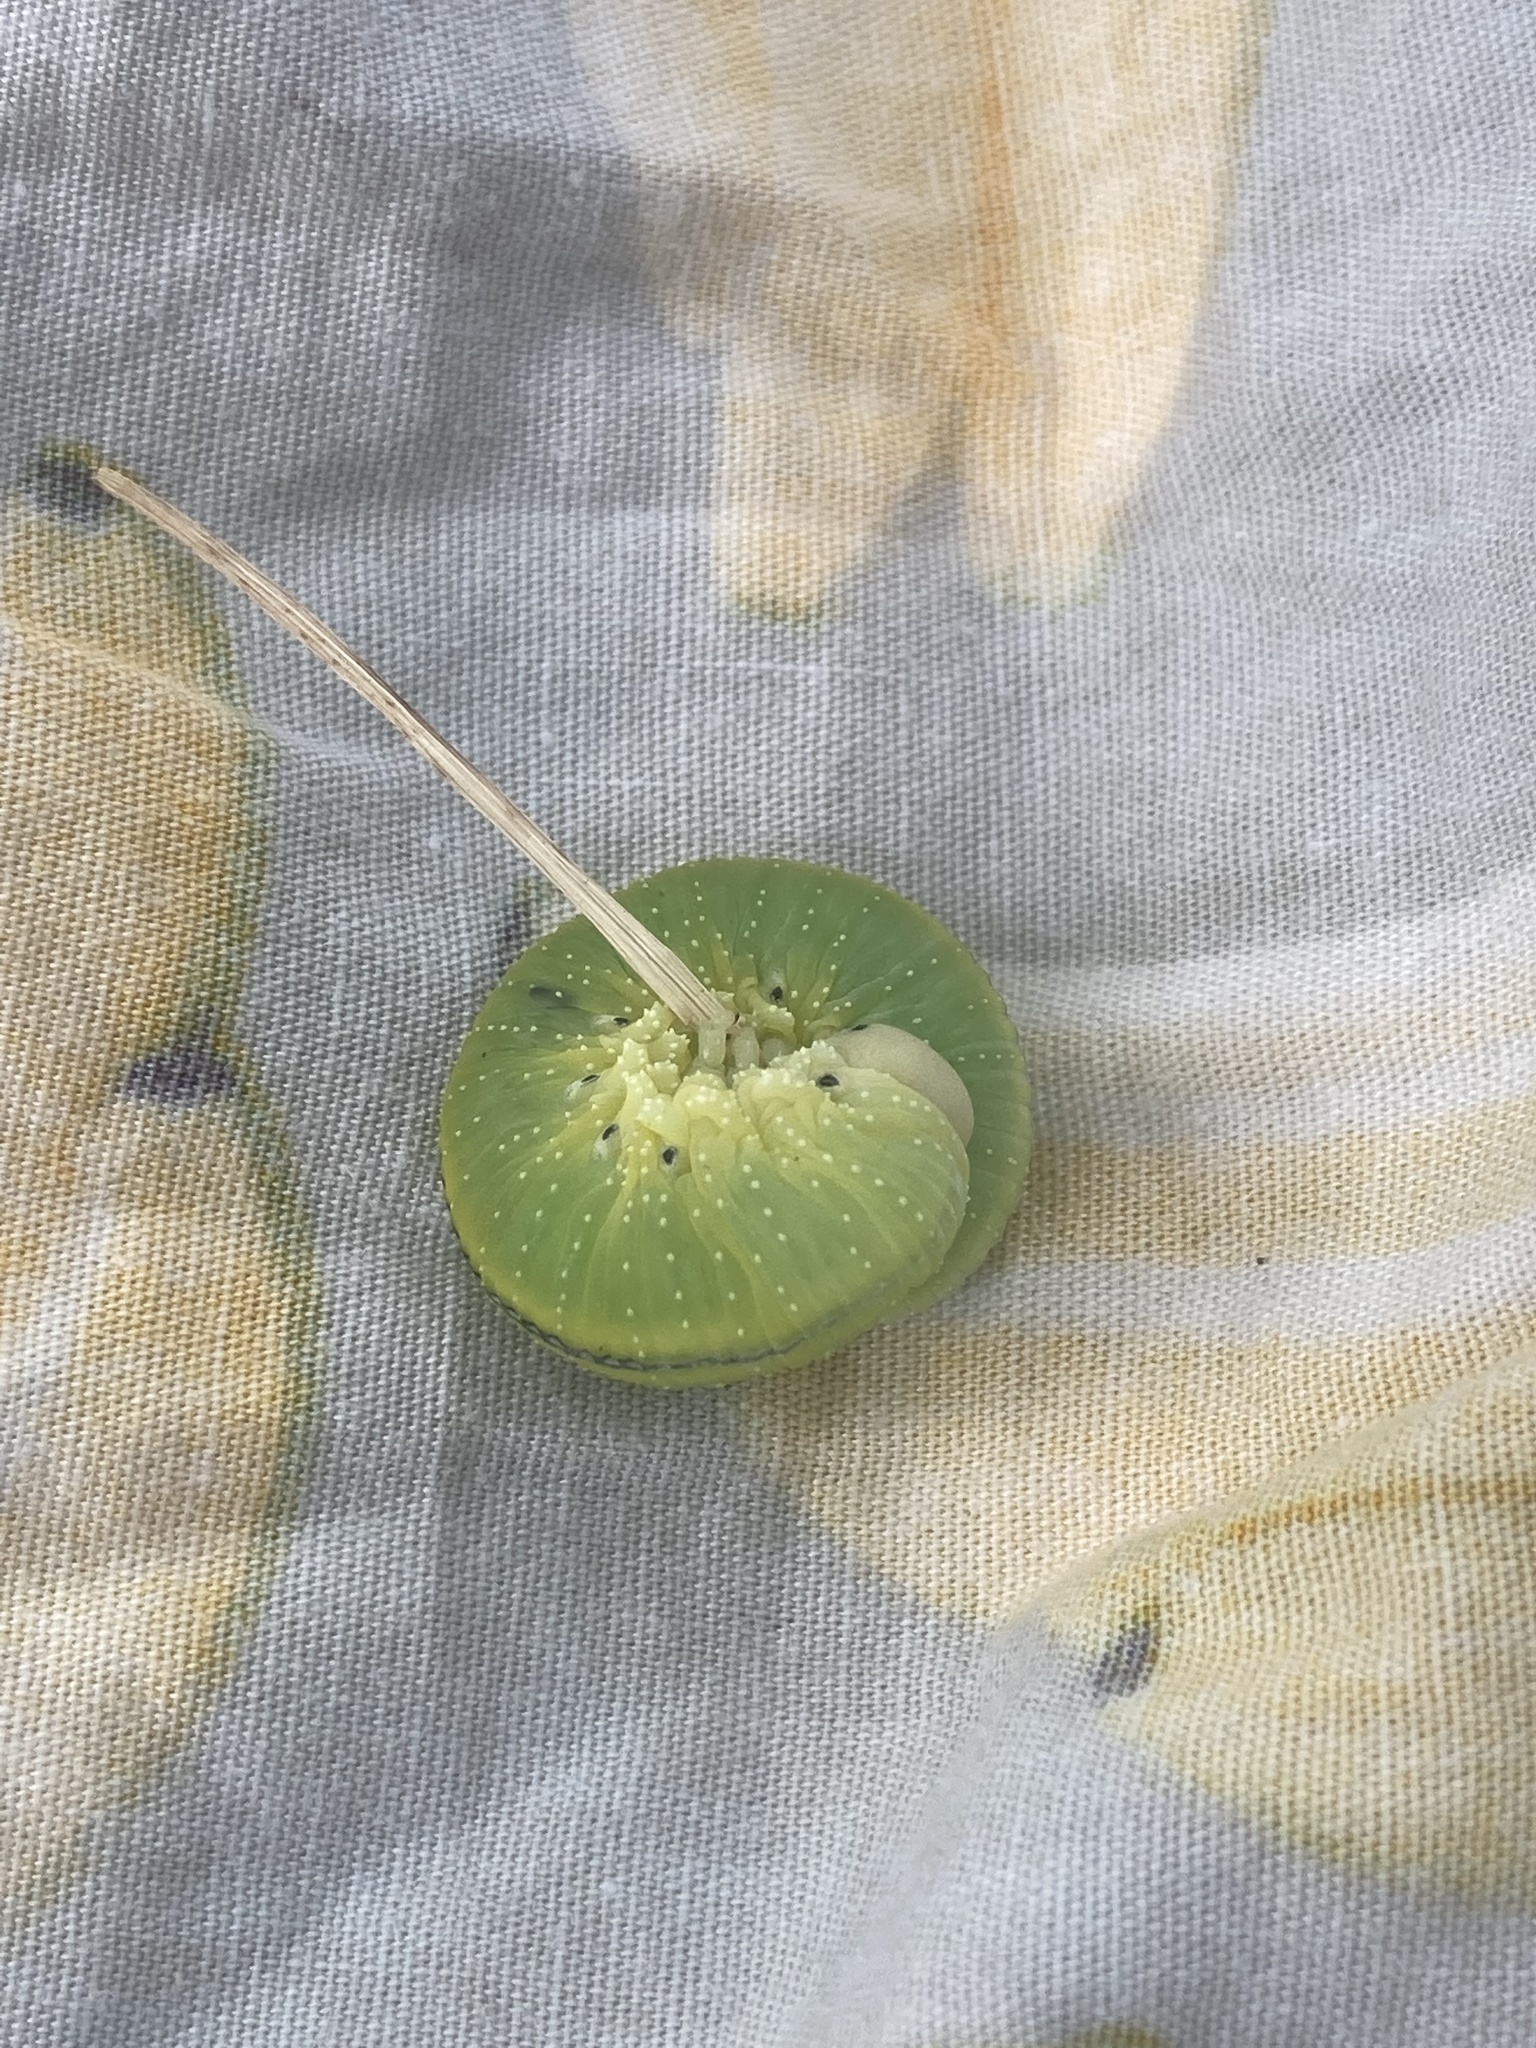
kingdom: Animalia
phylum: Arthropoda
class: Insecta
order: Hymenoptera
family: Cimbicidae
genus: Cimbex
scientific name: Cimbex femoratus
